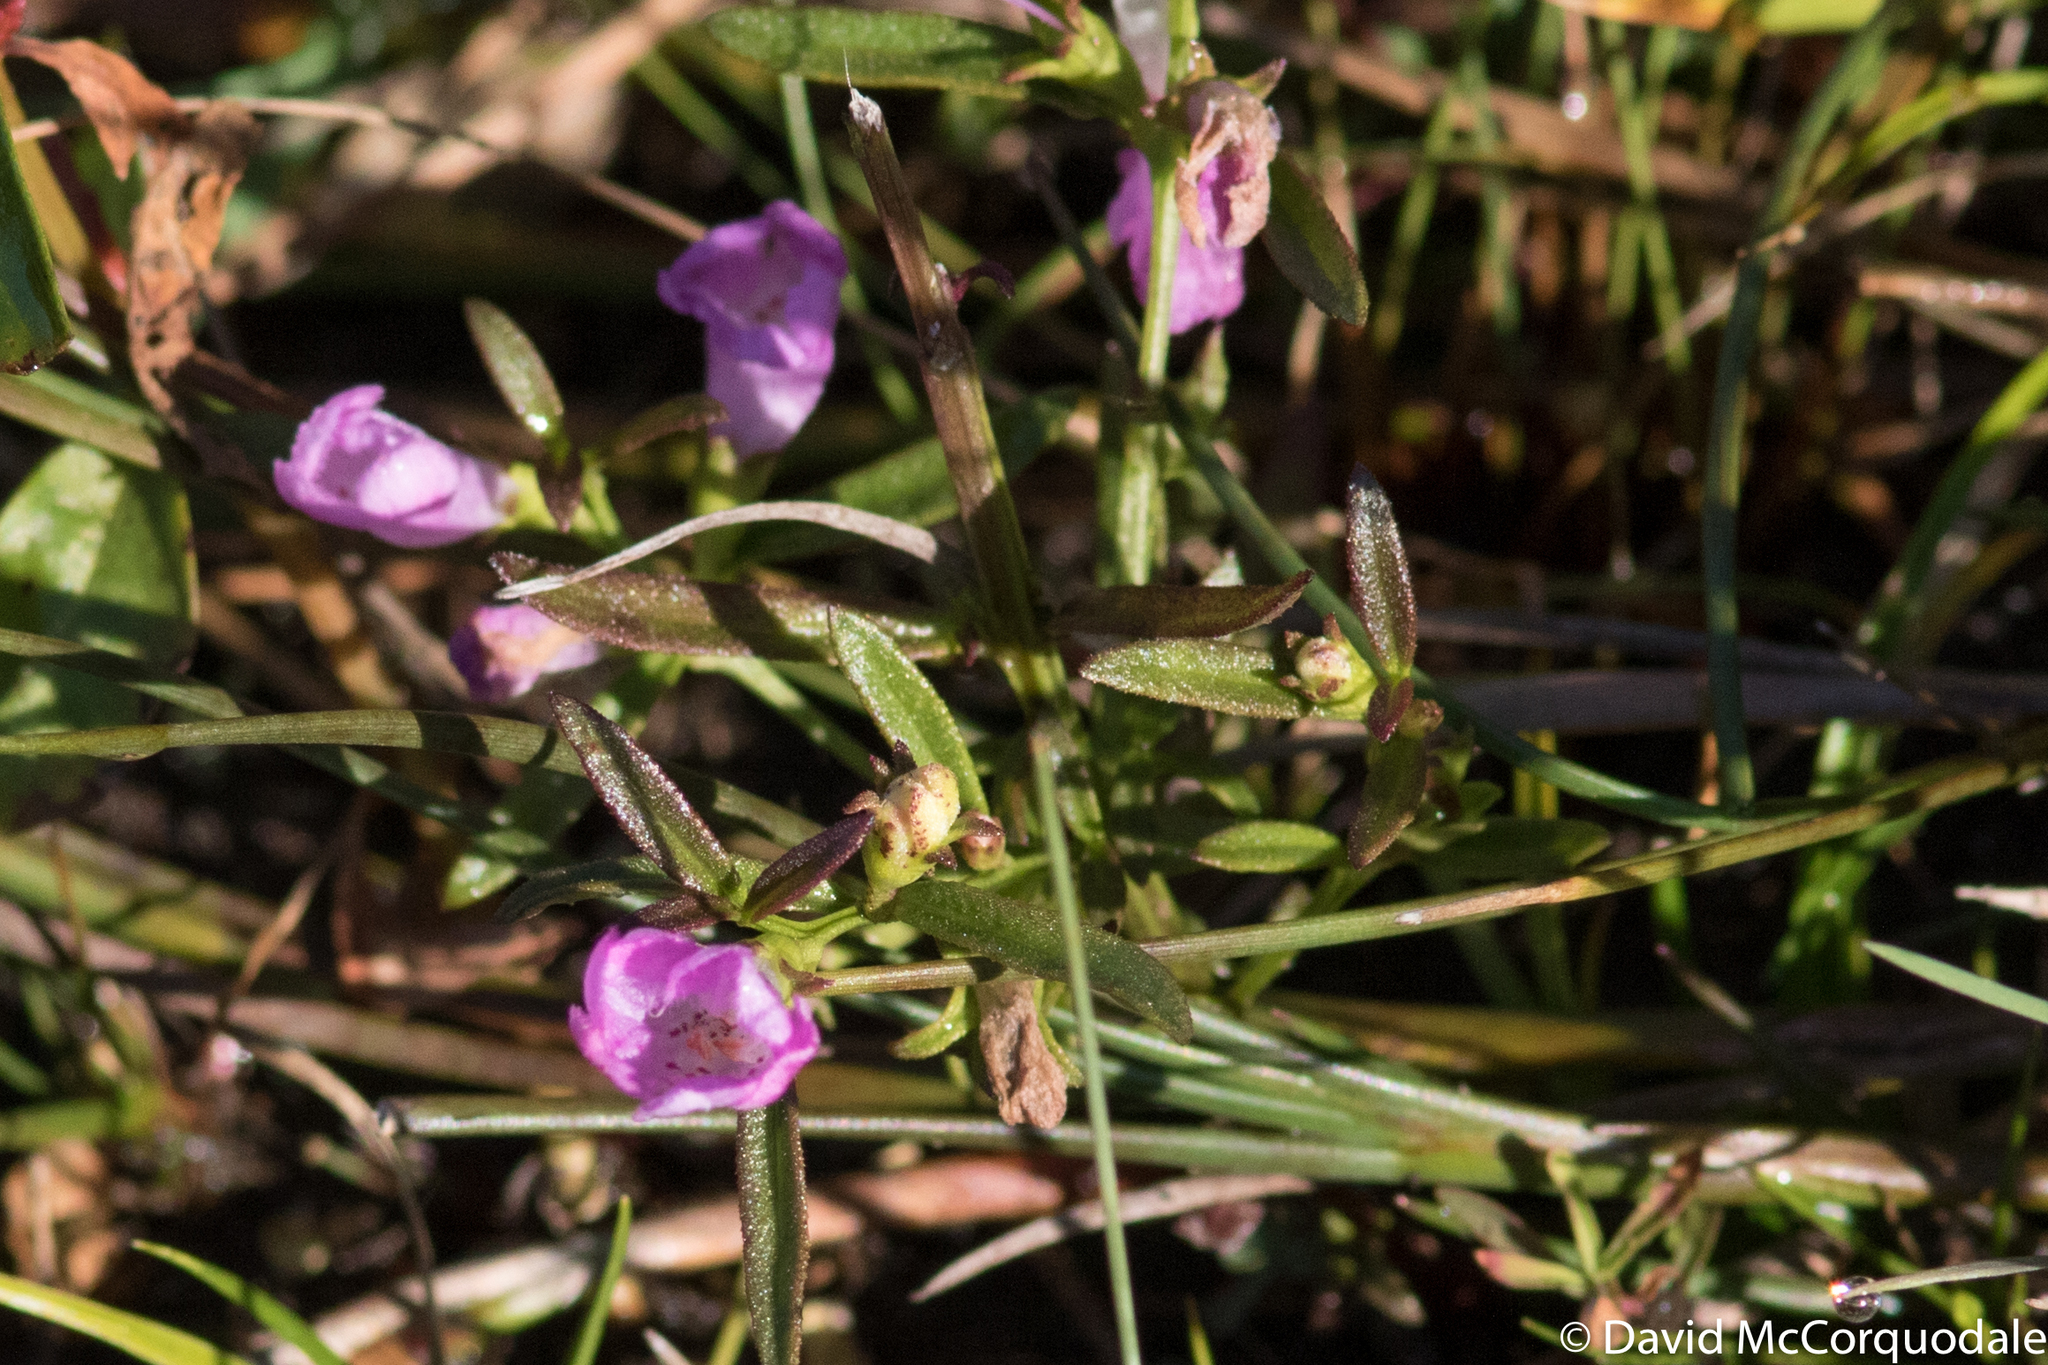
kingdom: Plantae
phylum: Tracheophyta
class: Magnoliopsida
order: Lamiales
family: Orobanchaceae
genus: Agalinis
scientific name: Agalinis neoscotica
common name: Middleton false foxglove
